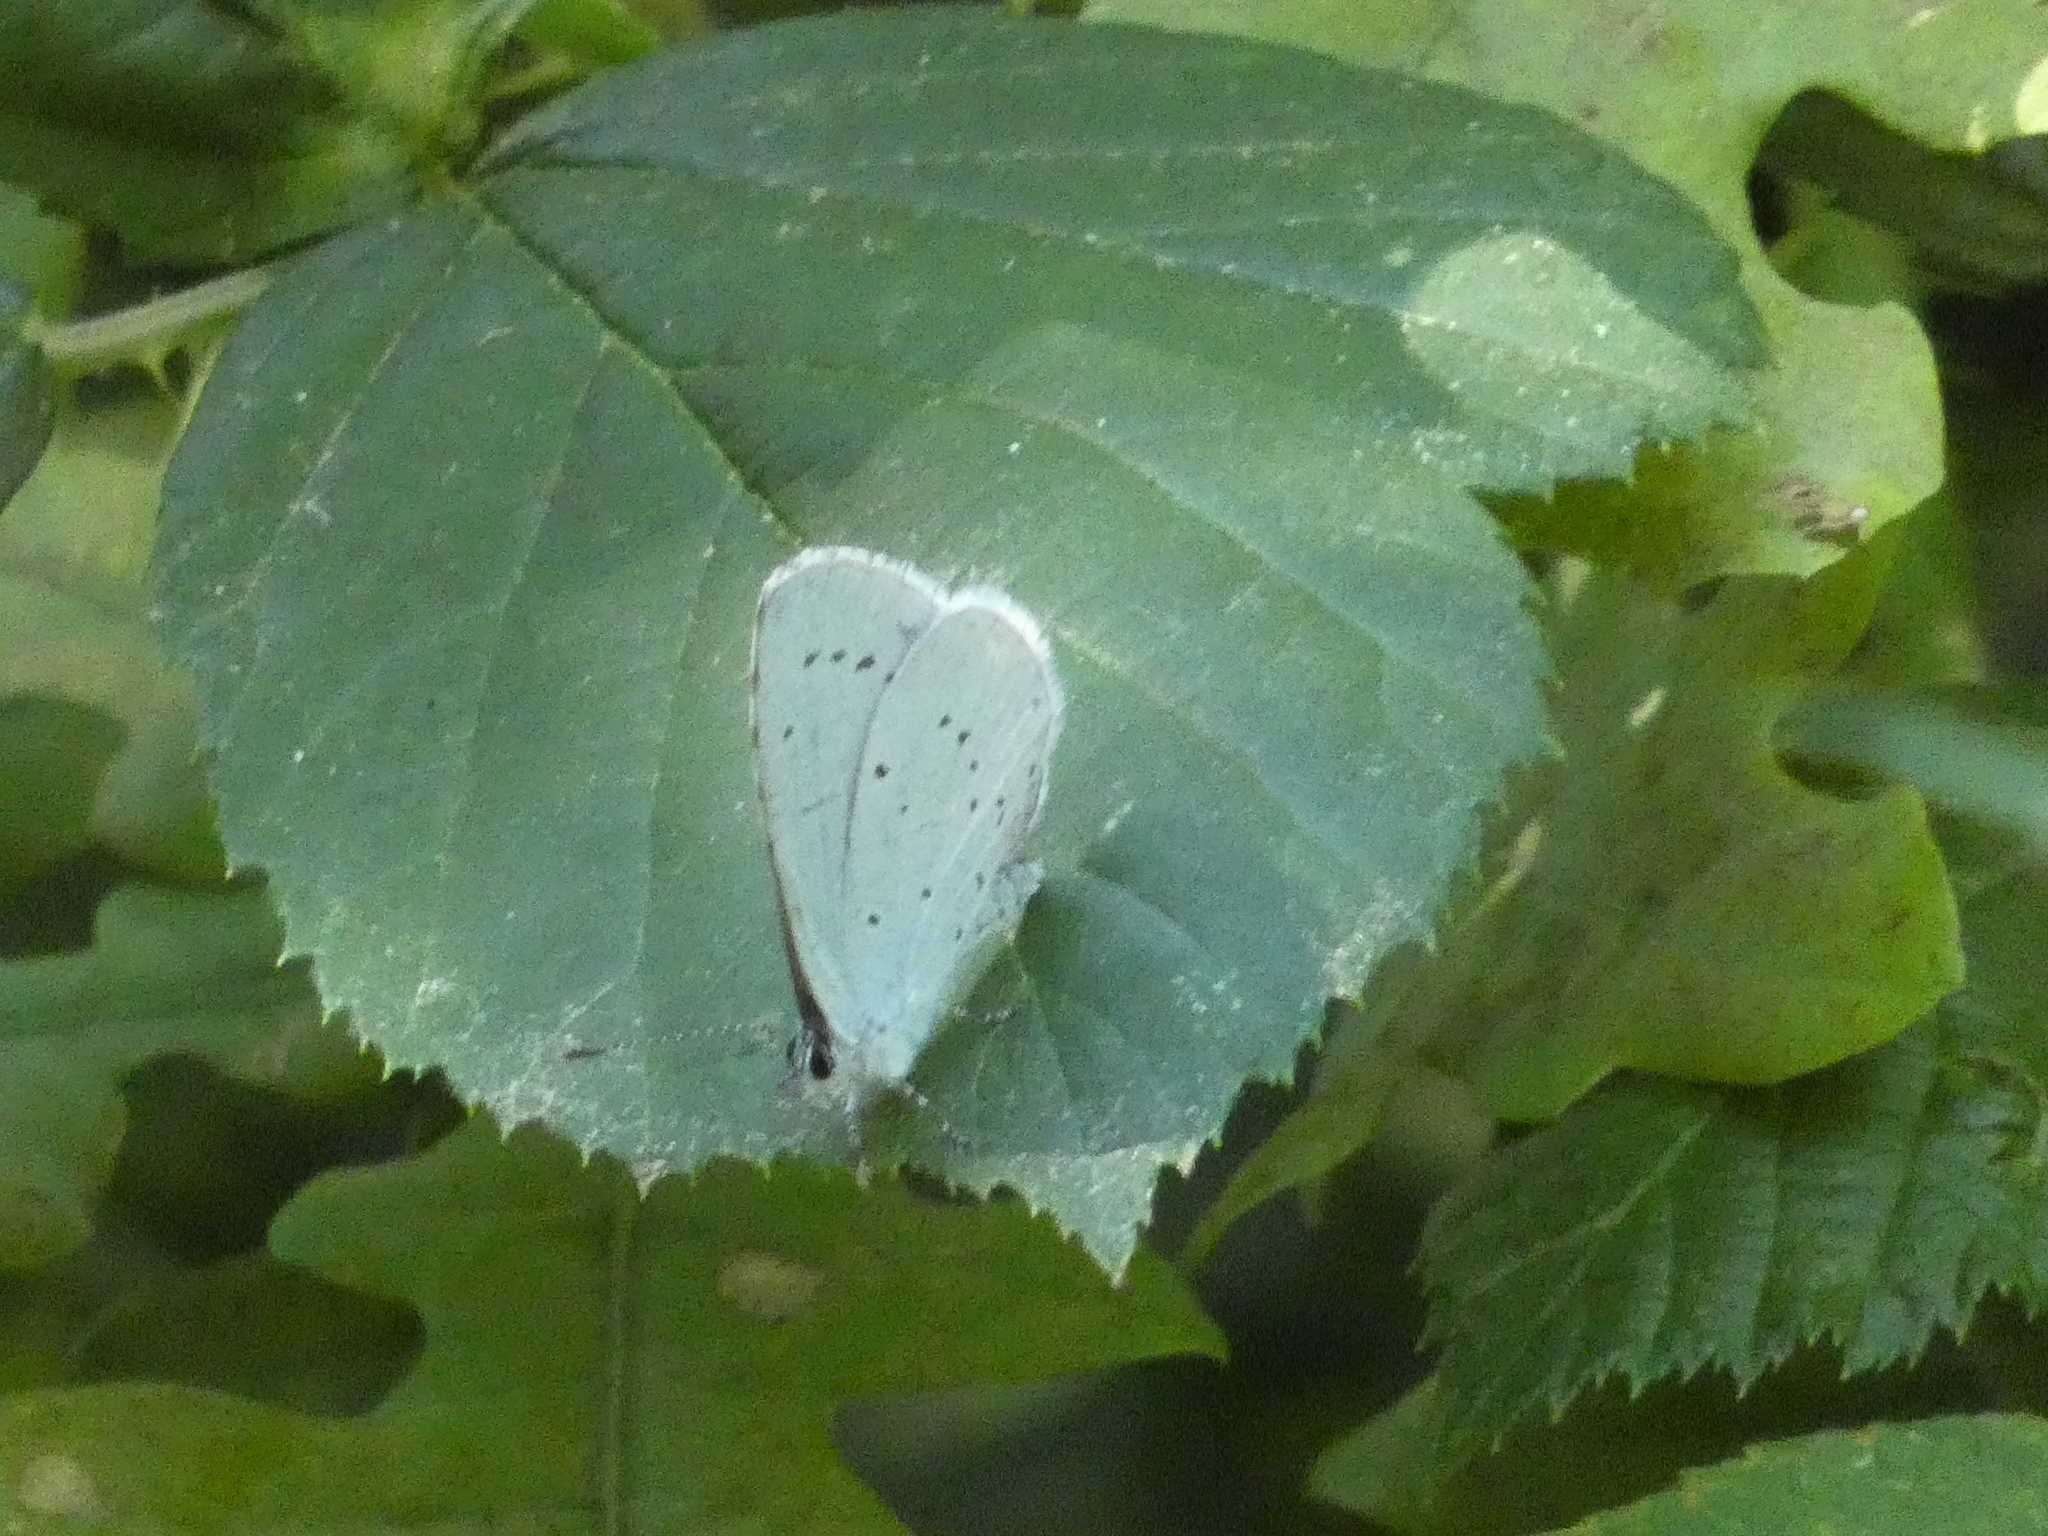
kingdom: Animalia
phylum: Arthropoda
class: Insecta
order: Lepidoptera
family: Lycaenidae
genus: Celastrina
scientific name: Celastrina argiolus
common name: Holly blue
